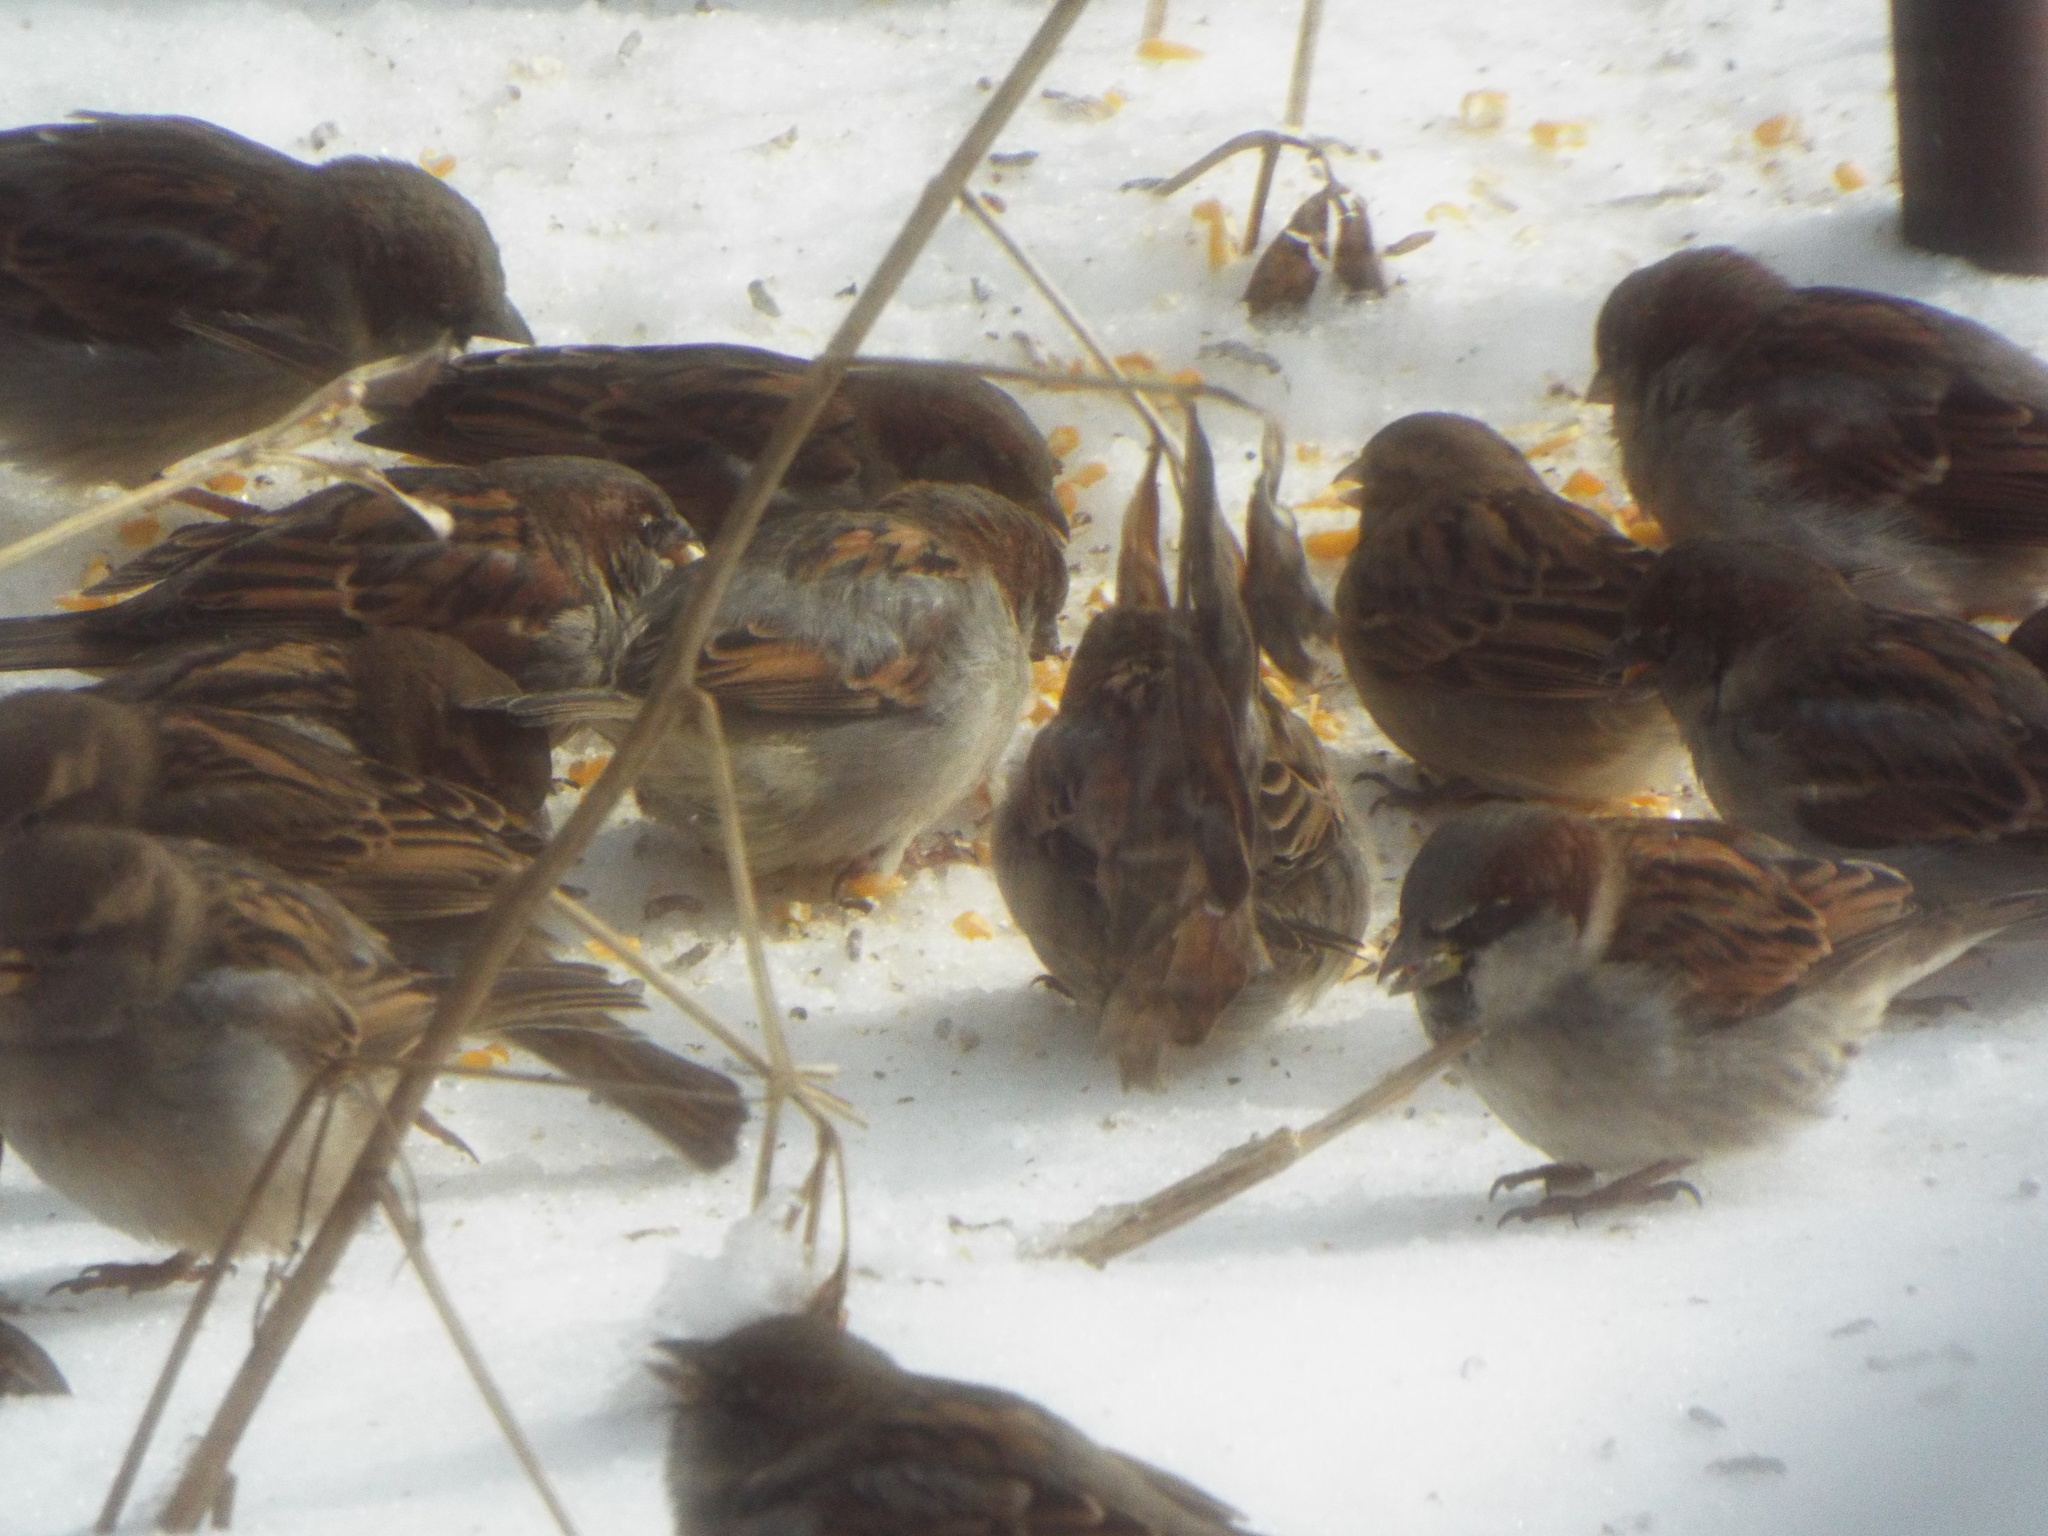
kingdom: Animalia
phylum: Chordata
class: Aves
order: Passeriformes
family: Passeridae
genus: Passer
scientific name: Passer domesticus
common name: House sparrow
